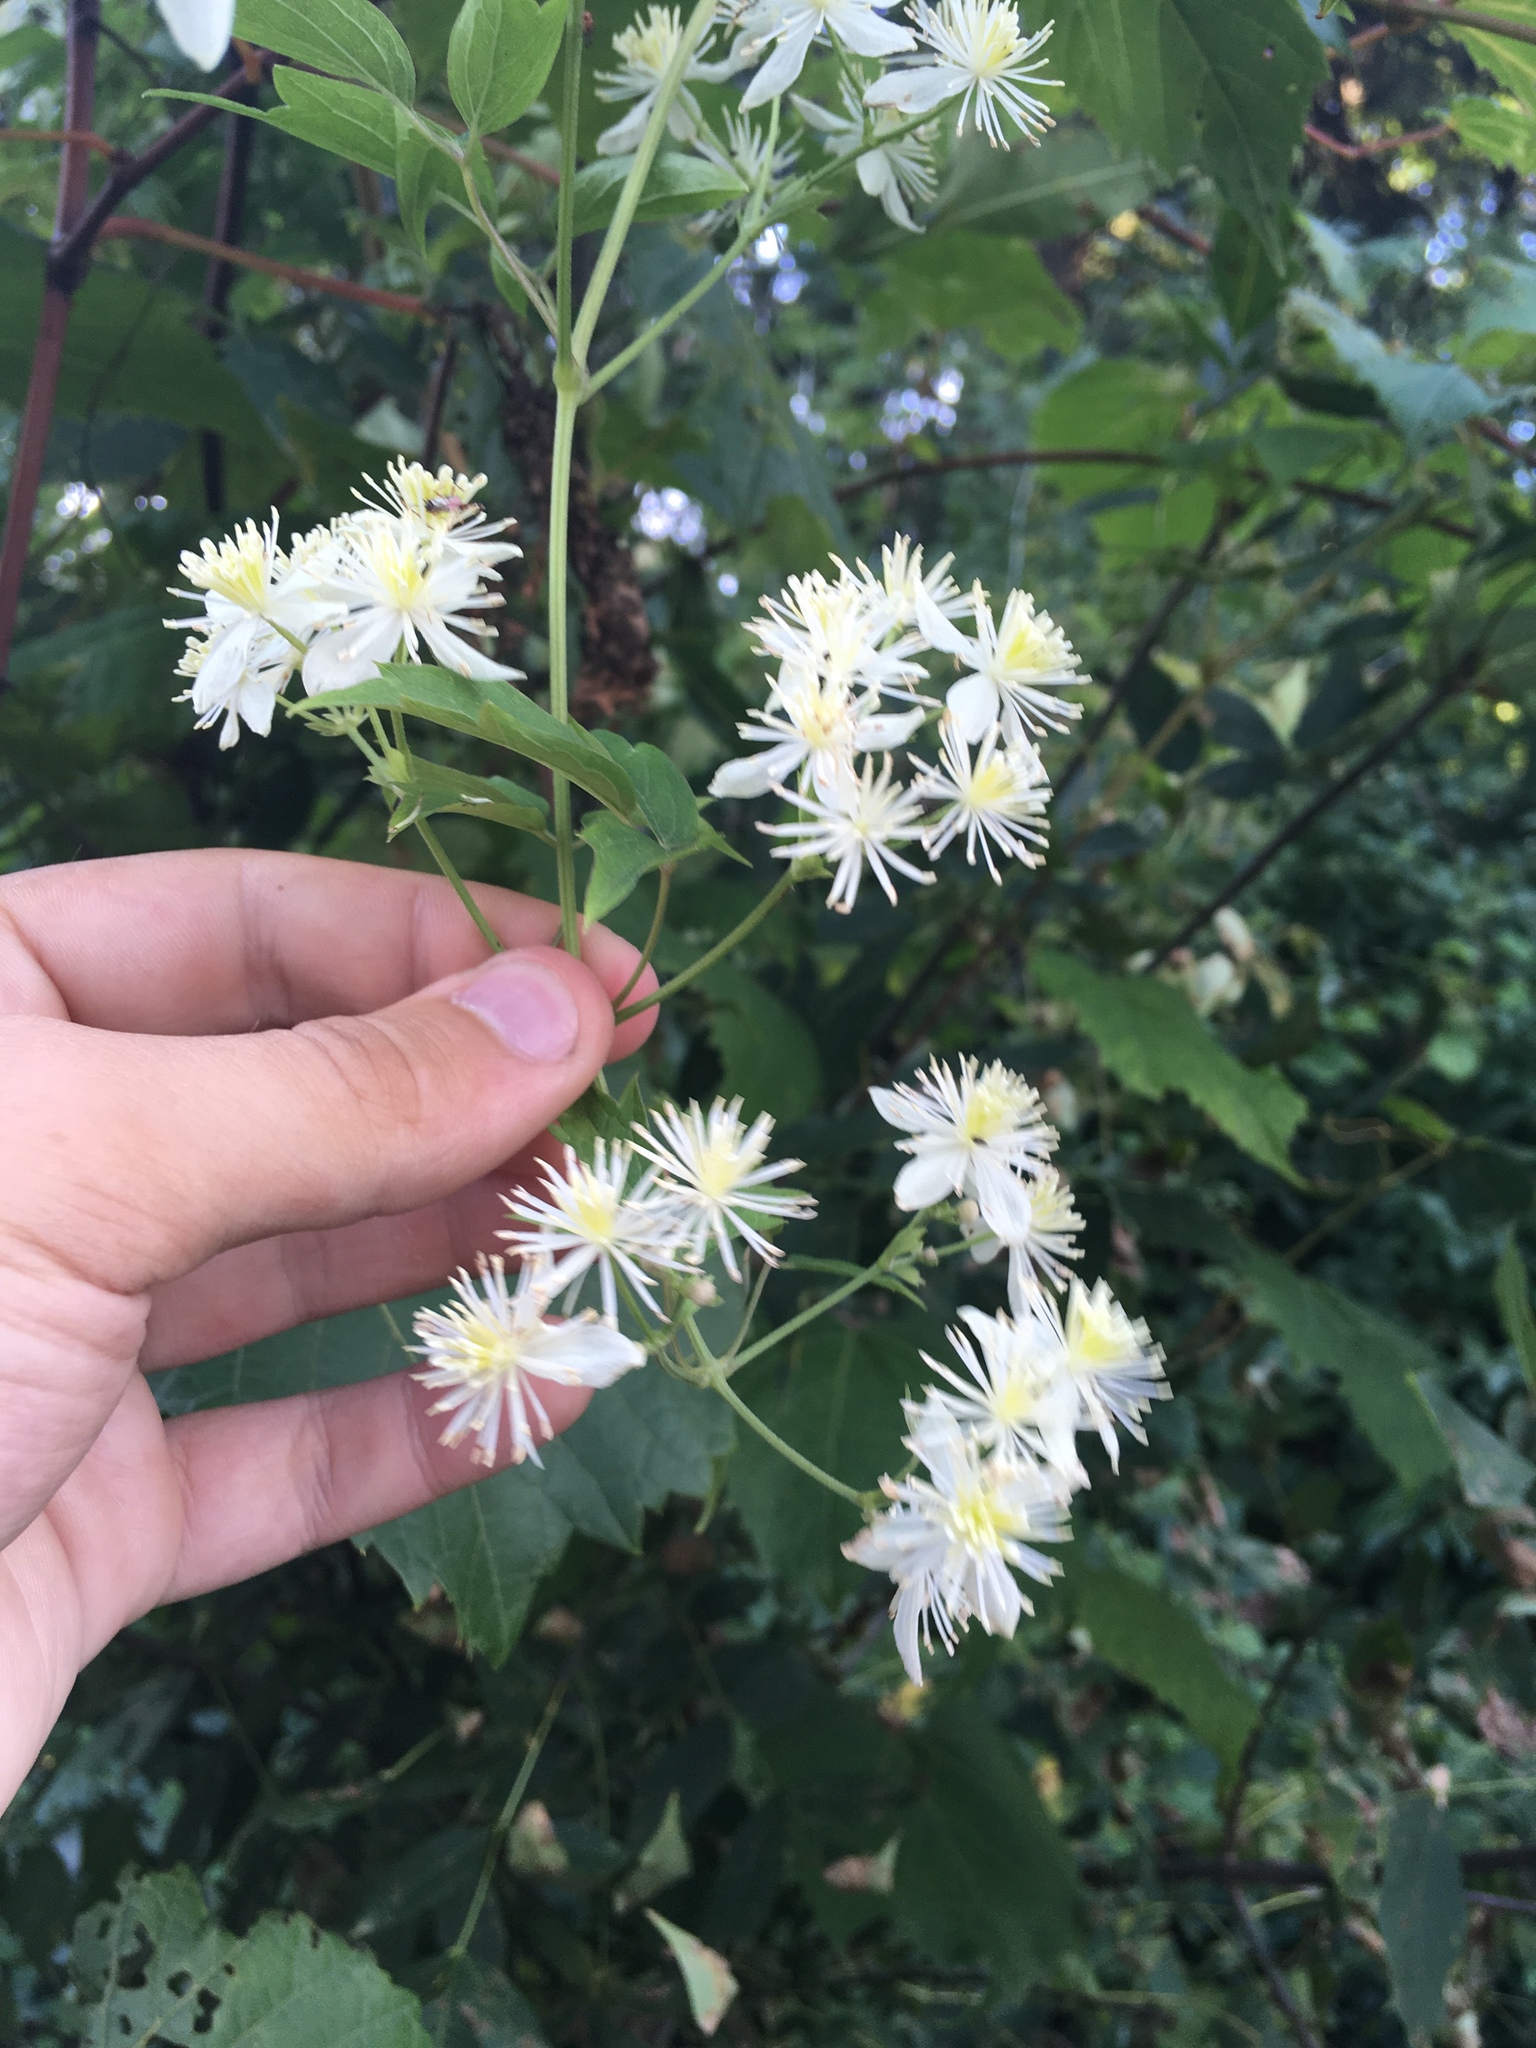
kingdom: Plantae
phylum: Tracheophyta
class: Magnoliopsida
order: Ranunculales
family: Ranunculaceae
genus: Clematis
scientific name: Clematis virginiana
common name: Virgin's-bower
